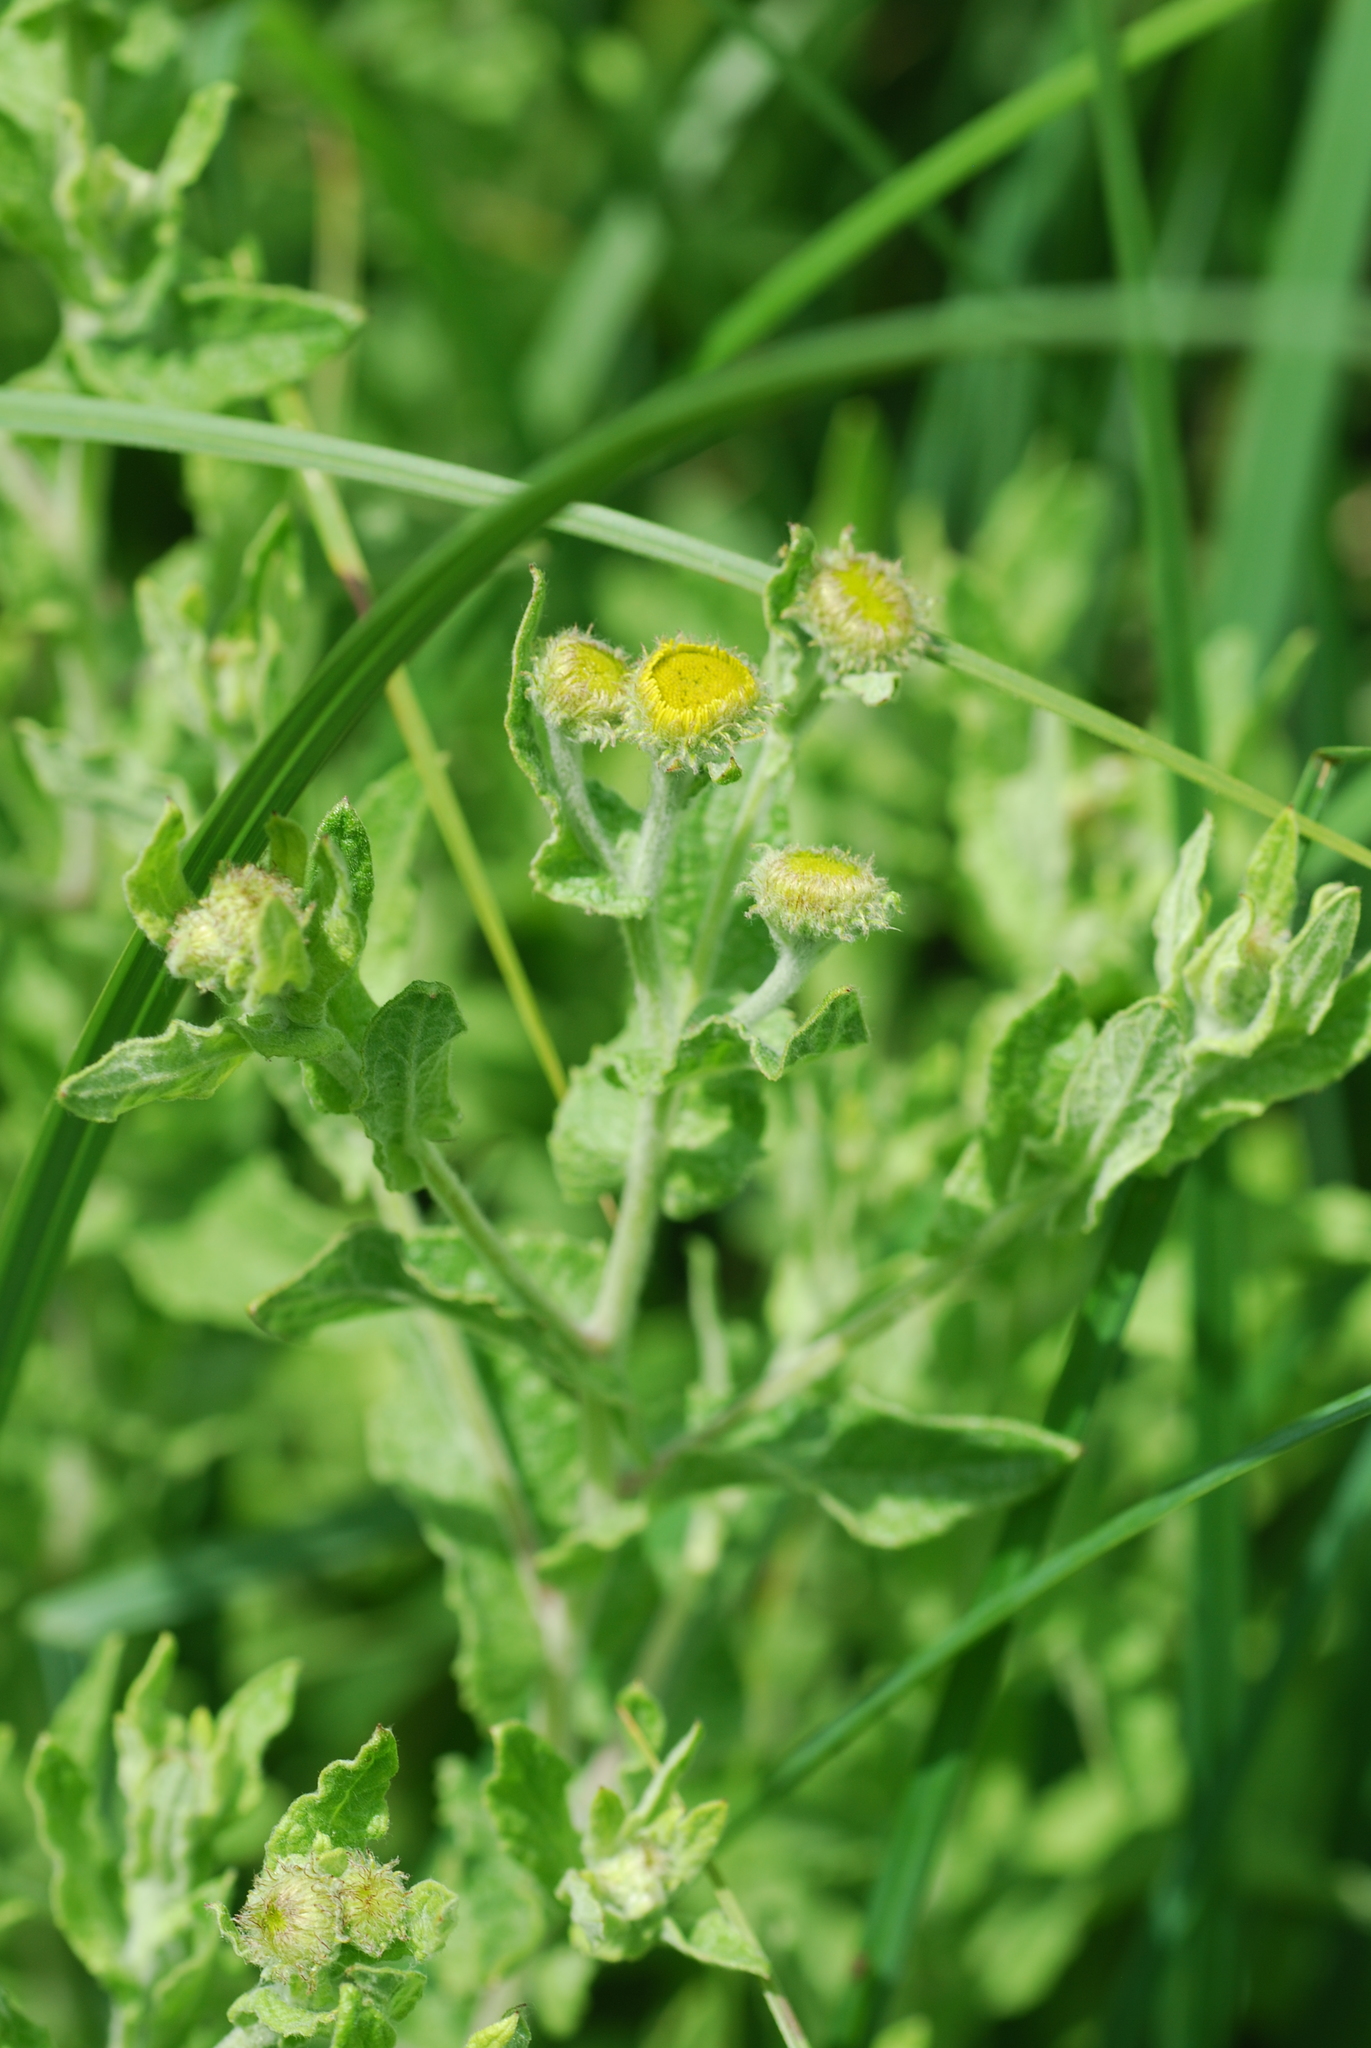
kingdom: Plantae
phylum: Tracheophyta
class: Magnoliopsida
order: Asterales
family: Asteraceae
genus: Pulicaria
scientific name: Pulicaria dysenterica
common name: Common fleabane
